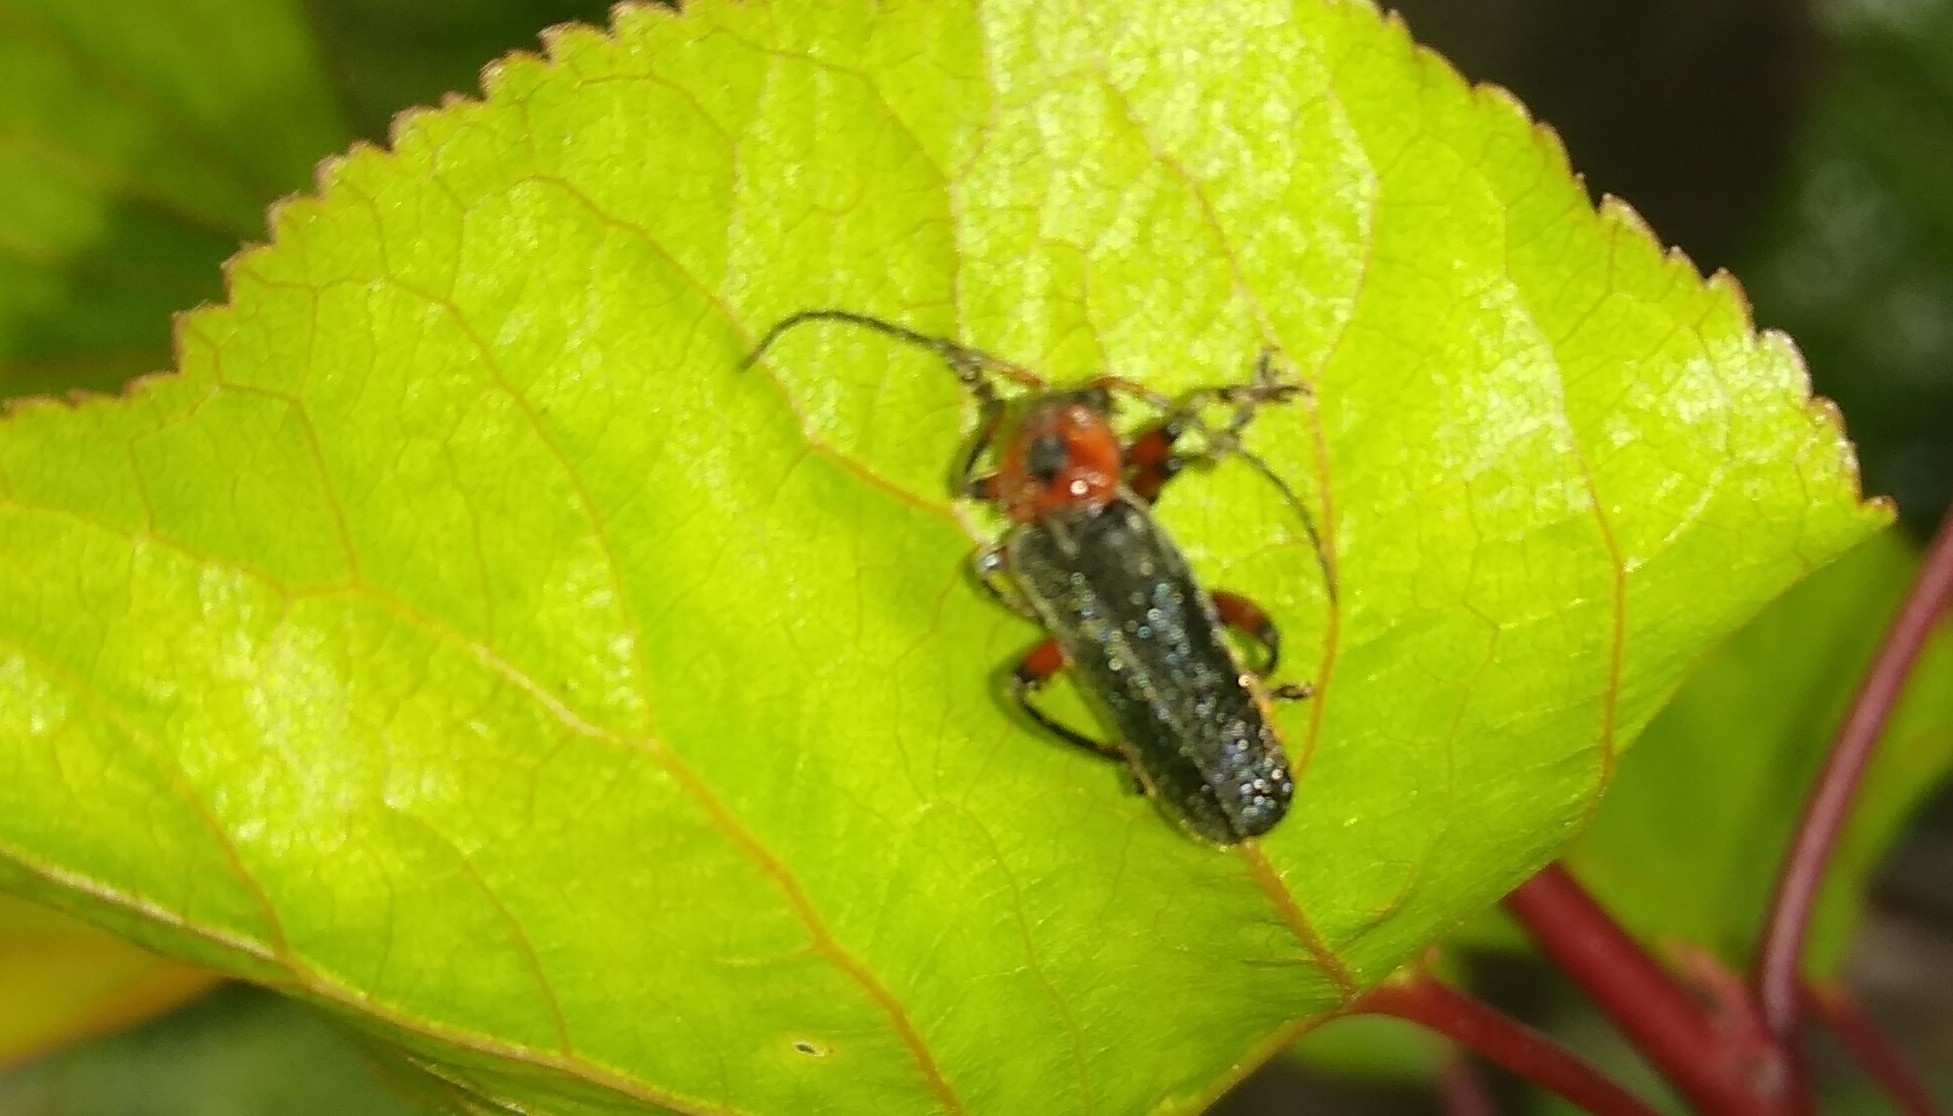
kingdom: Animalia
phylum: Arthropoda
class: Insecta
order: Coleoptera
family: Cantharidae
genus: Cantharis
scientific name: Cantharis rustica
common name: Soldier beetle
